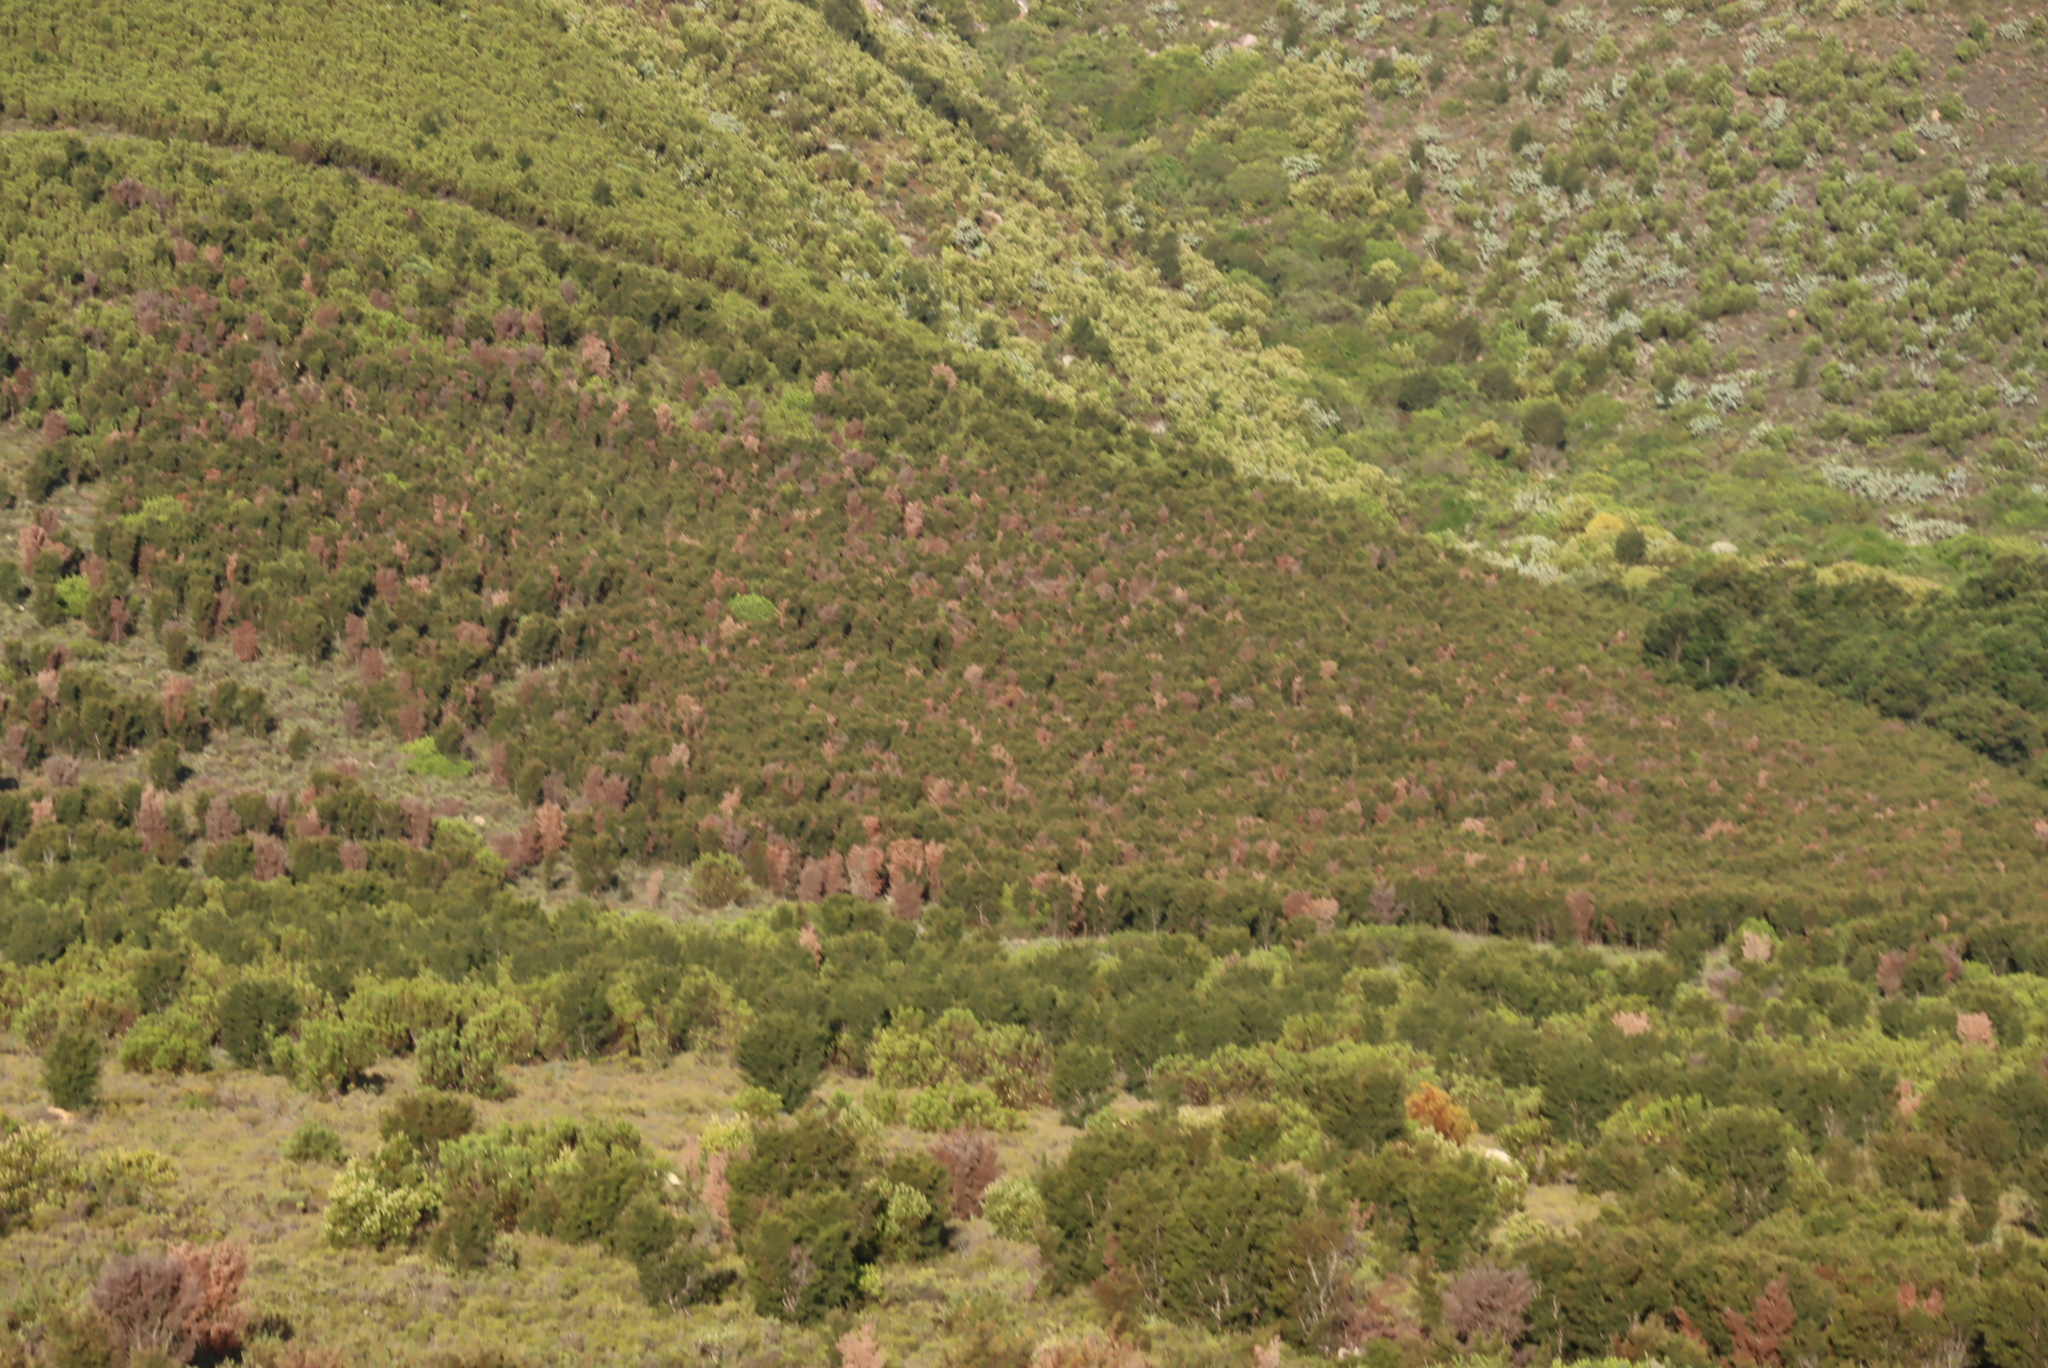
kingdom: Fungi
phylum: Ascomycota
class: Sordariomycetes
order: Glomerellales
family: Glomerellaceae
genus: Colletotrichum
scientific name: Colletotrichum acutatum
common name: Hakea gummosis fungus
